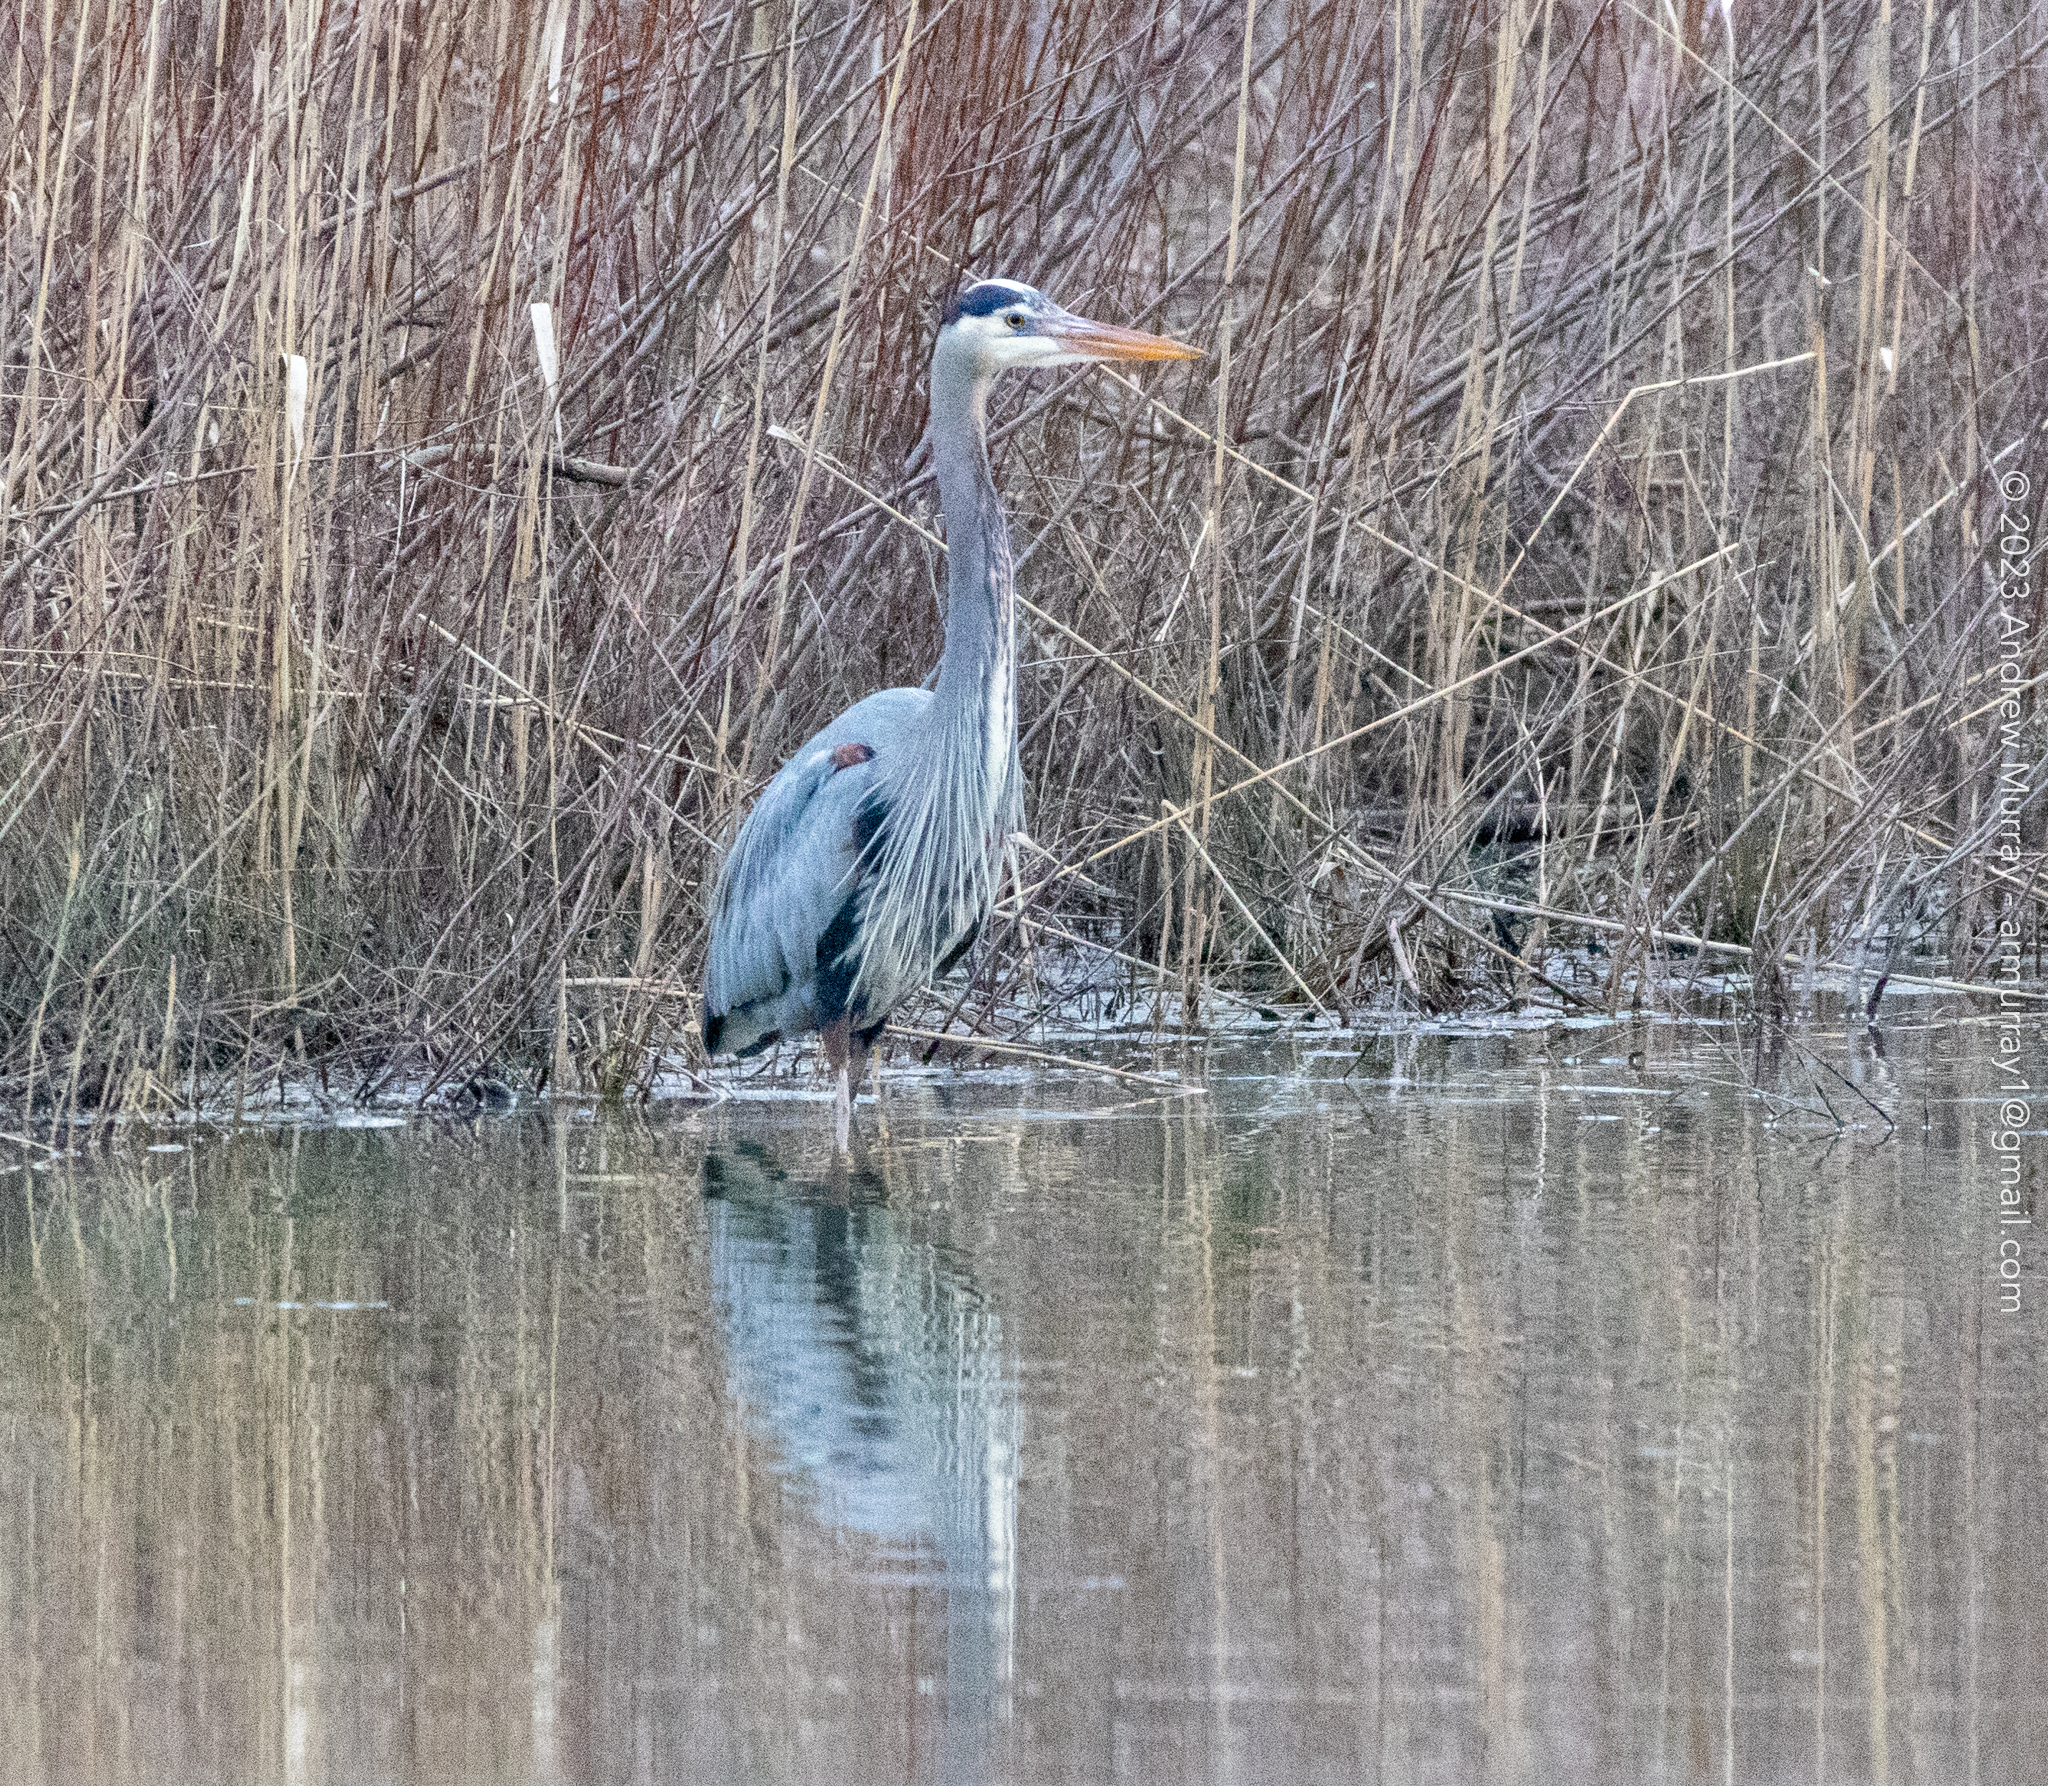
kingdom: Animalia
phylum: Chordata
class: Aves
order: Pelecaniformes
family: Ardeidae
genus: Ardea
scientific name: Ardea herodias
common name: Great blue heron
